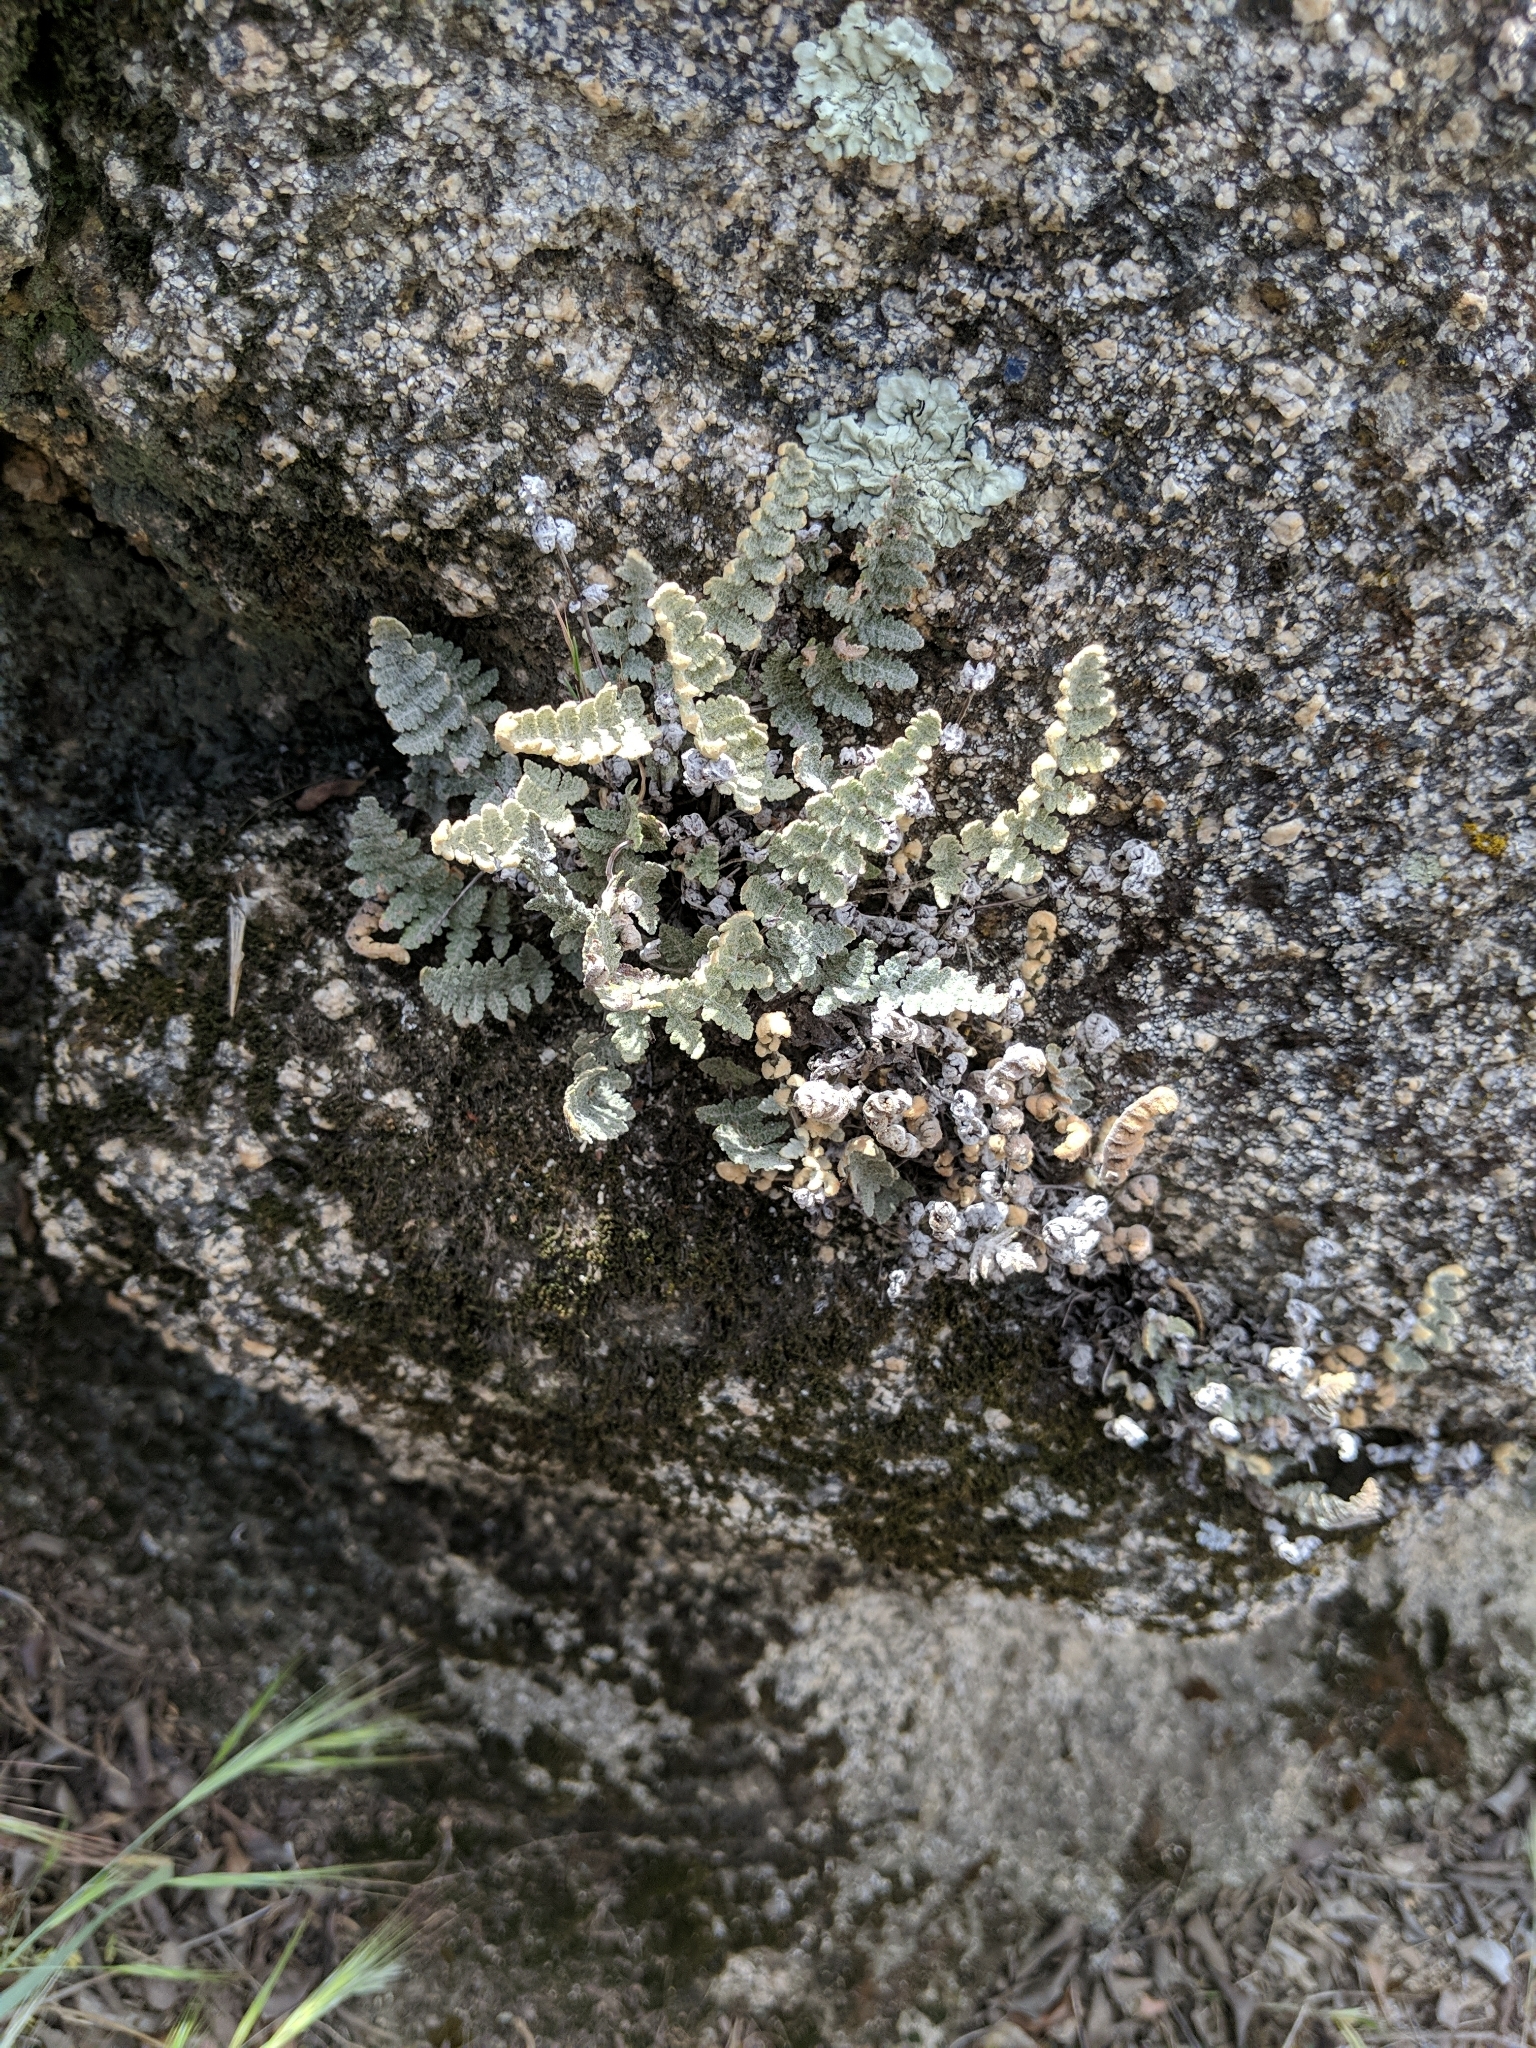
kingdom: Plantae
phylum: Tracheophyta
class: Polypodiopsida
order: Polypodiales
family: Pteridaceae
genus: Myriopteris
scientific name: Myriopteris newberryi
